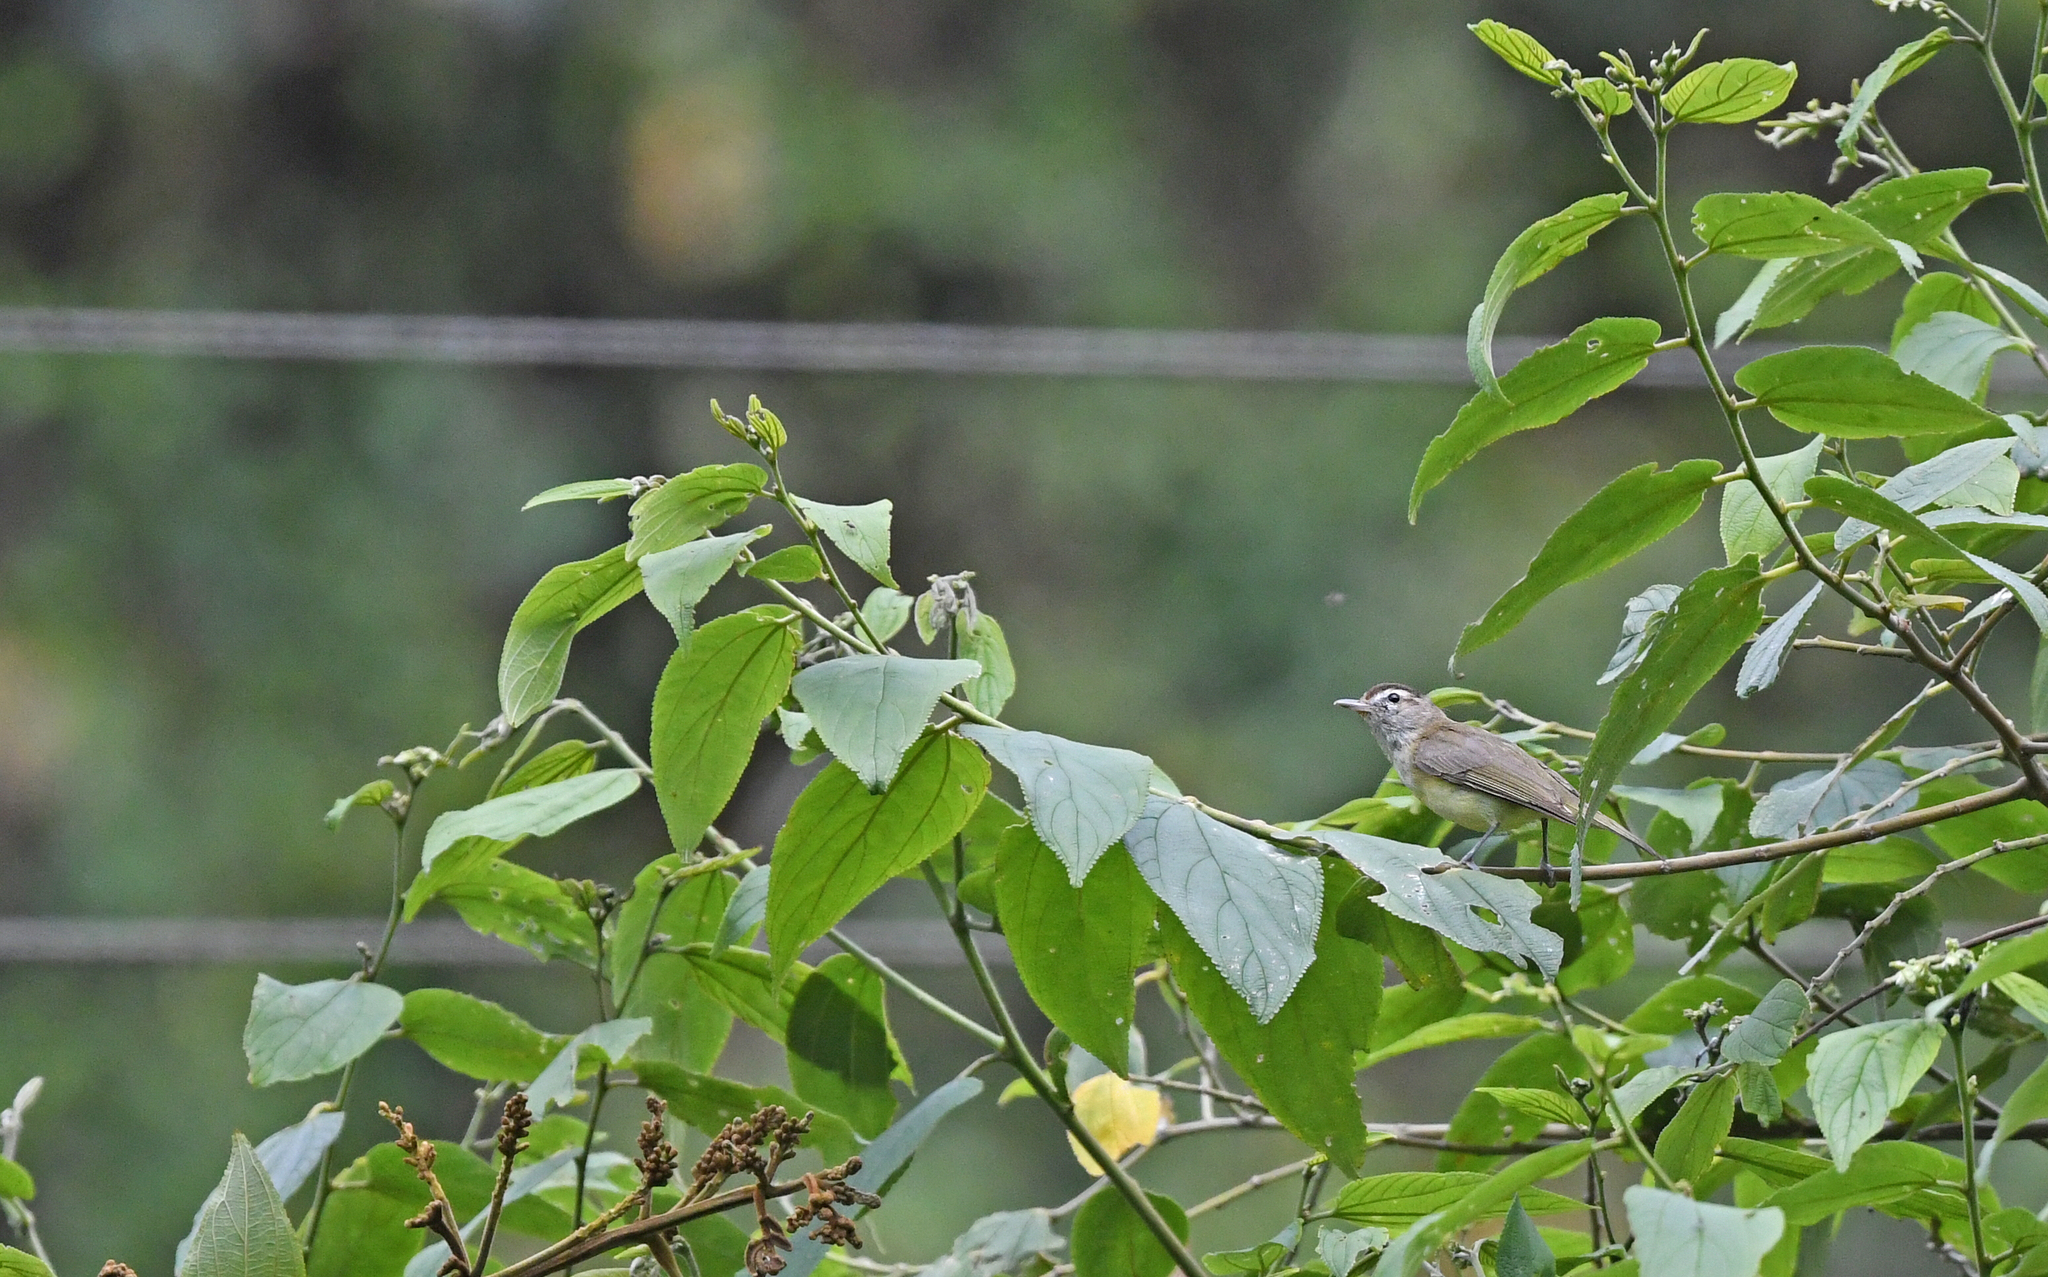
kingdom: Animalia
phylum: Chordata
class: Aves
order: Passeriformes
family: Vireonidae
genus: Vireo
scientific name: Vireo leucophrys
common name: Brown-capped vireo
